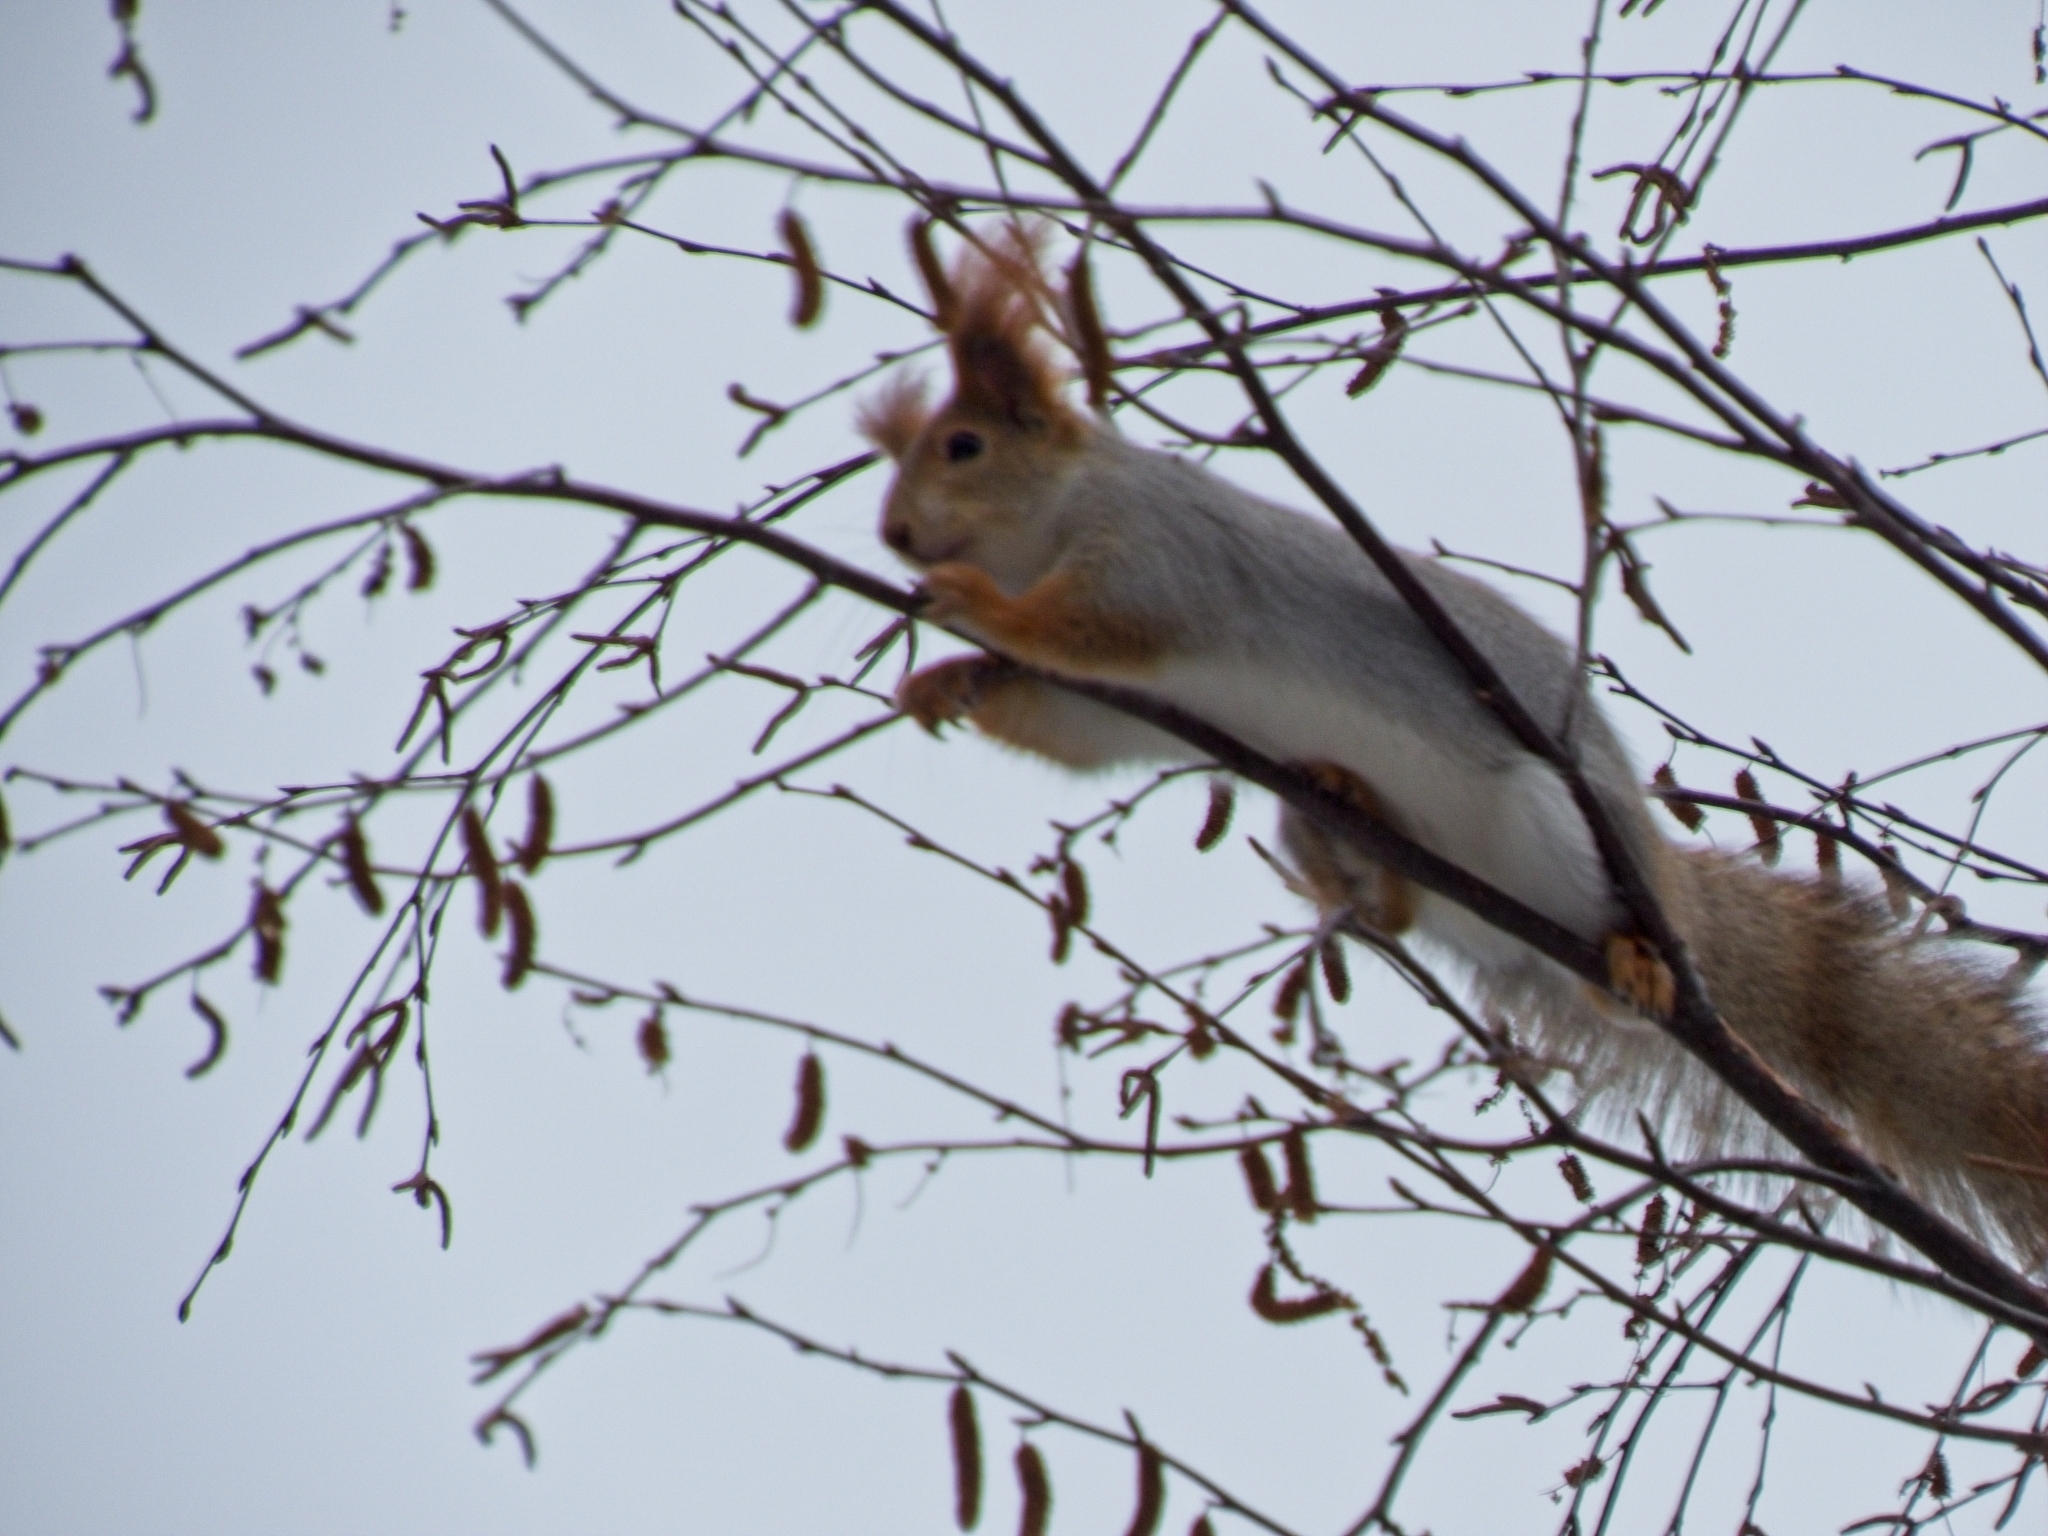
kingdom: Animalia
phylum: Chordata
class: Mammalia
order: Rodentia
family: Sciuridae
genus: Sciurus
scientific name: Sciurus vulgaris
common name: Eurasian red squirrel
